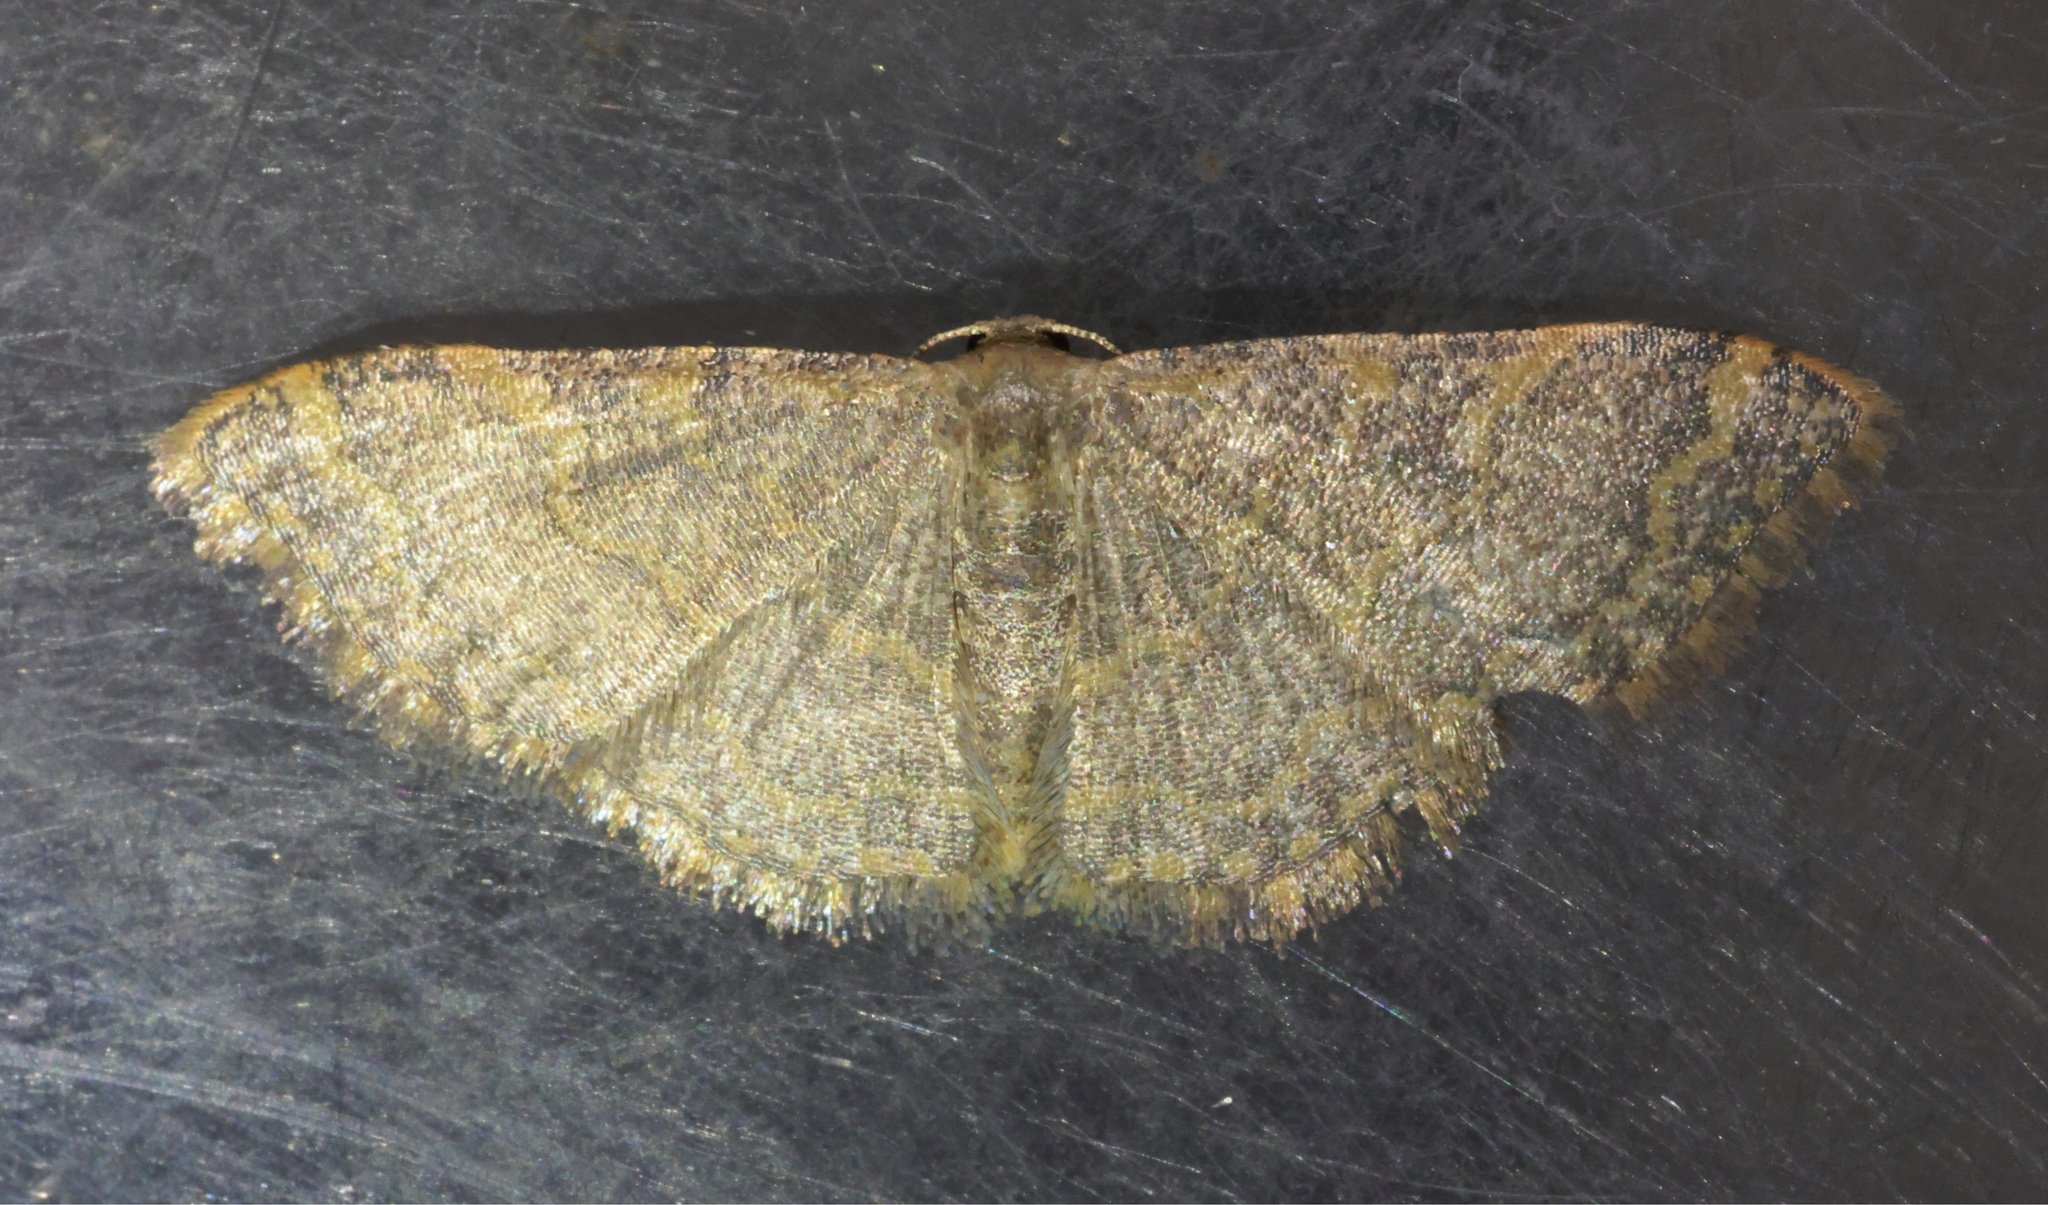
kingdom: Animalia
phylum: Arthropoda
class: Insecta
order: Lepidoptera
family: Geometridae
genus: Idaea
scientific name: Idaea costiguttata
